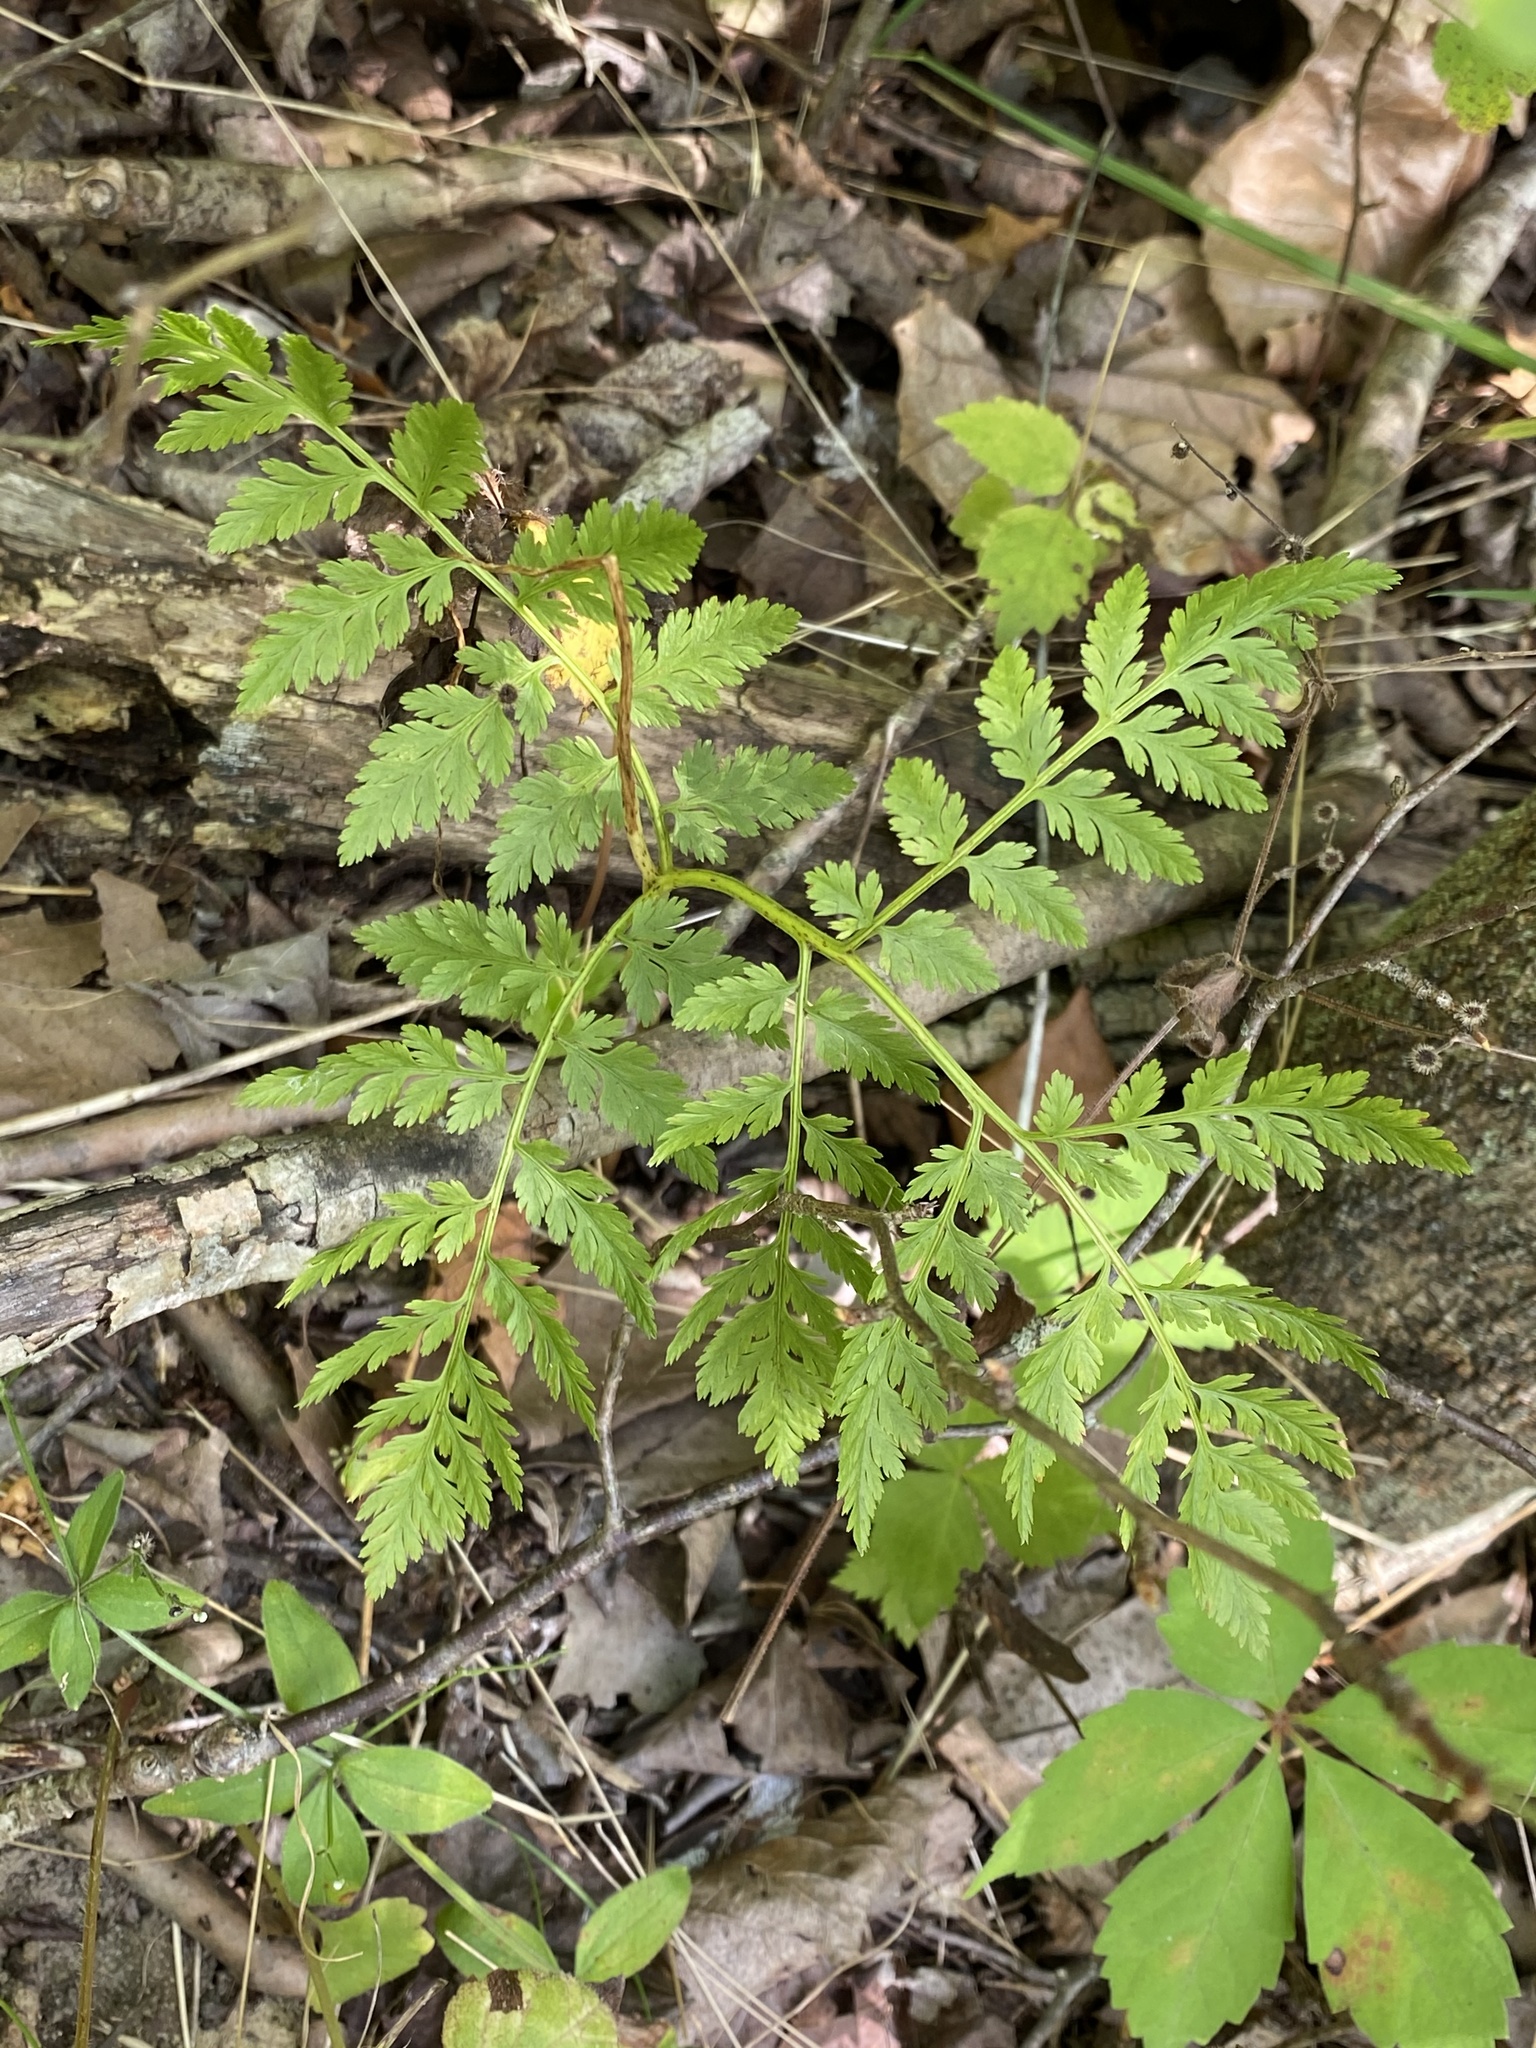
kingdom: Plantae
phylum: Tracheophyta
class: Polypodiopsida
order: Ophioglossales
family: Ophioglossaceae
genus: Botrypus
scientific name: Botrypus virginianus
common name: Common grapefern
